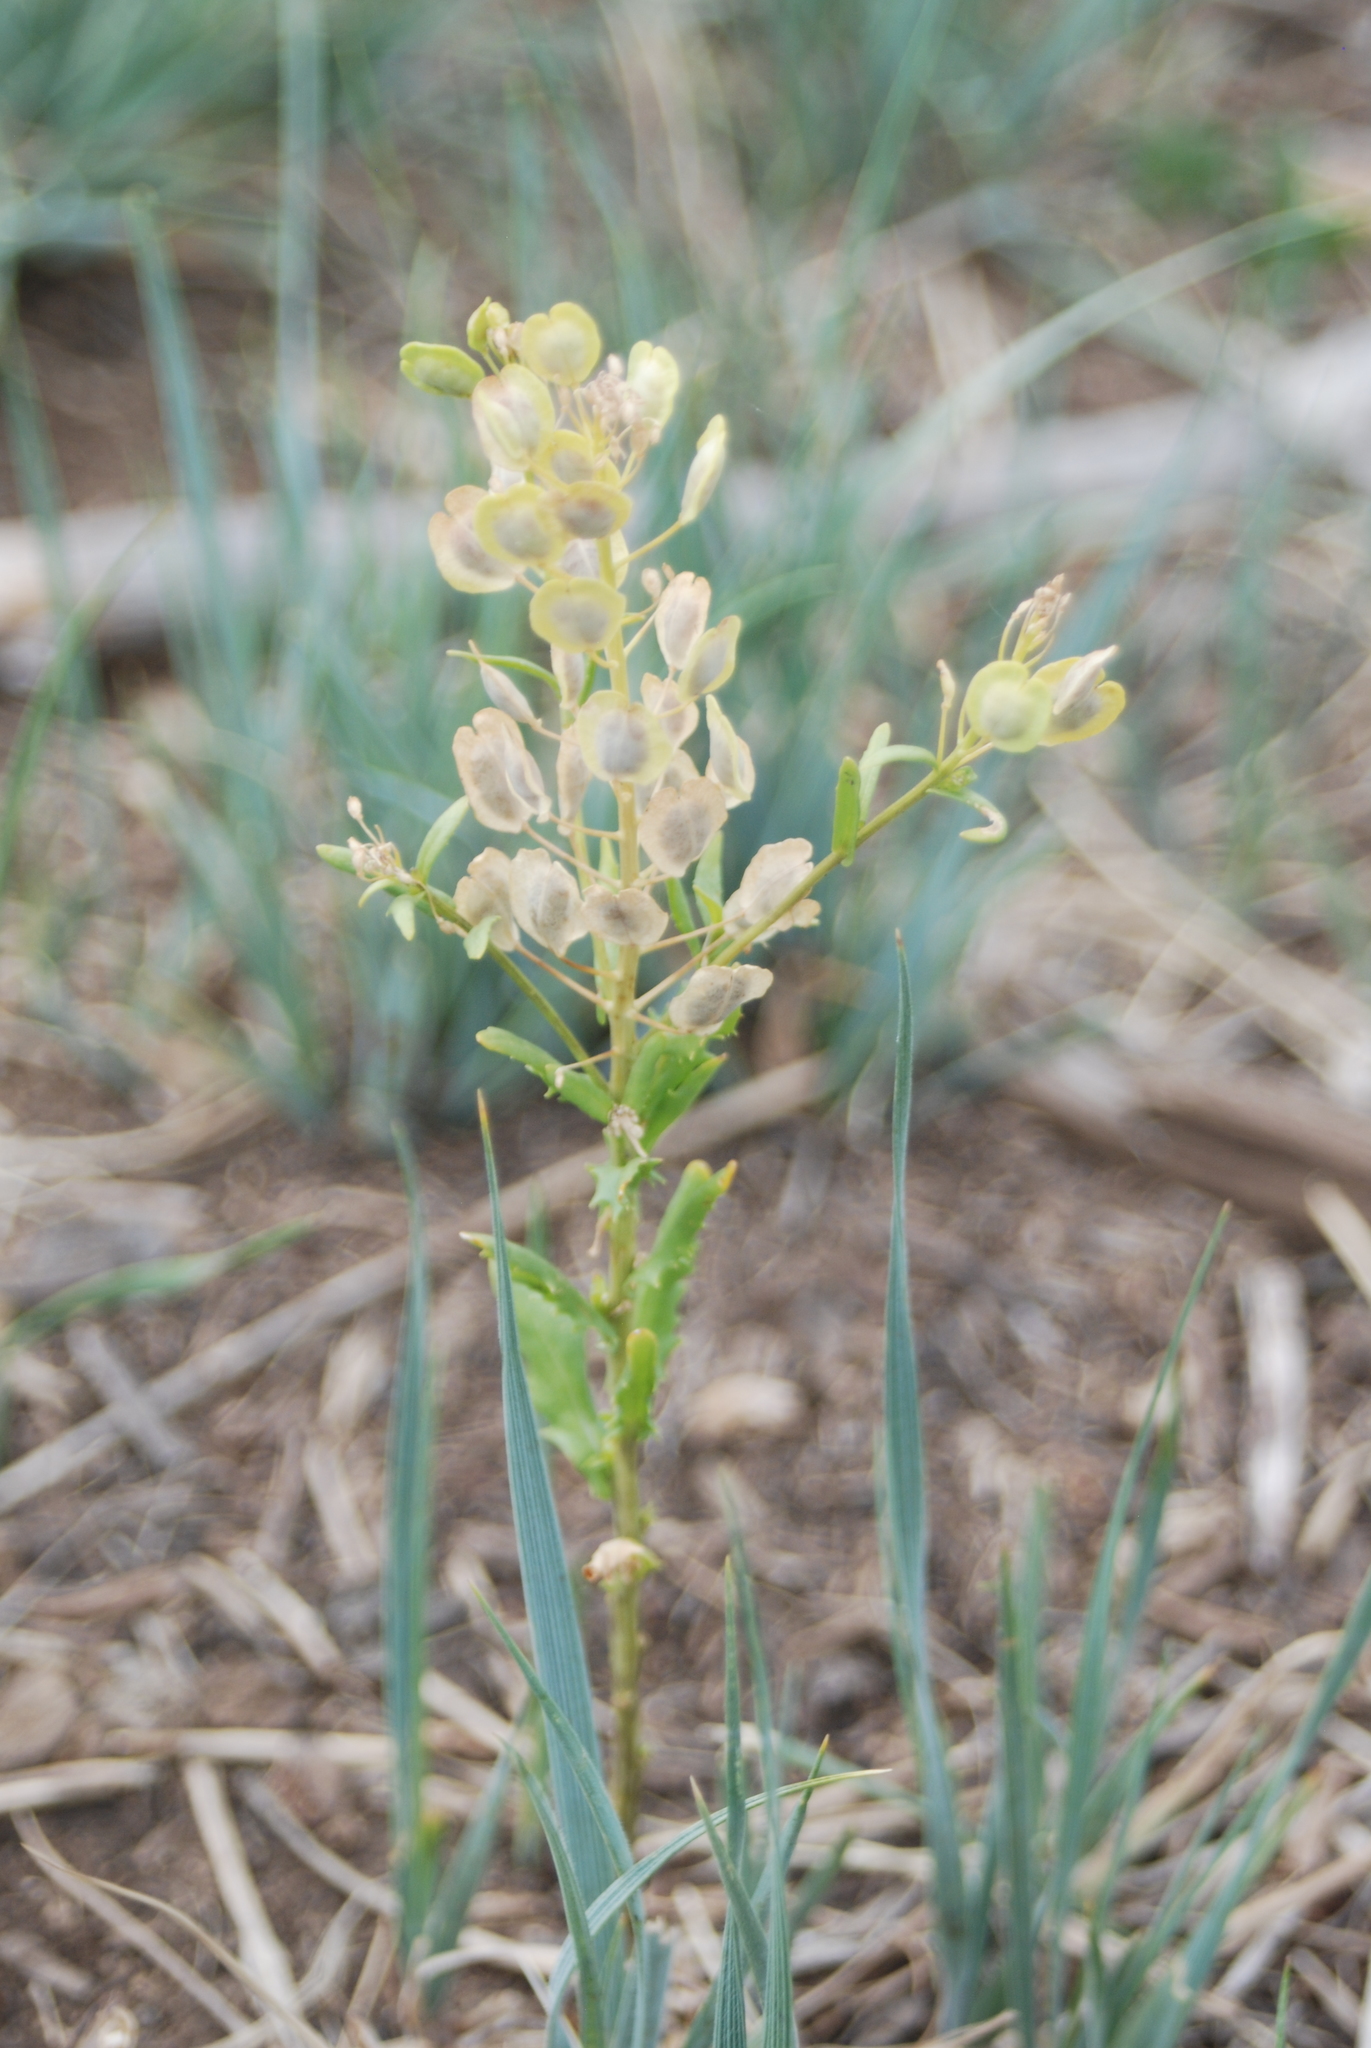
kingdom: Plantae
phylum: Tracheophyta
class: Magnoliopsida
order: Brassicales
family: Brassicaceae
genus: Thlaspi
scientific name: Thlaspi arvense
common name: Field pennycress
